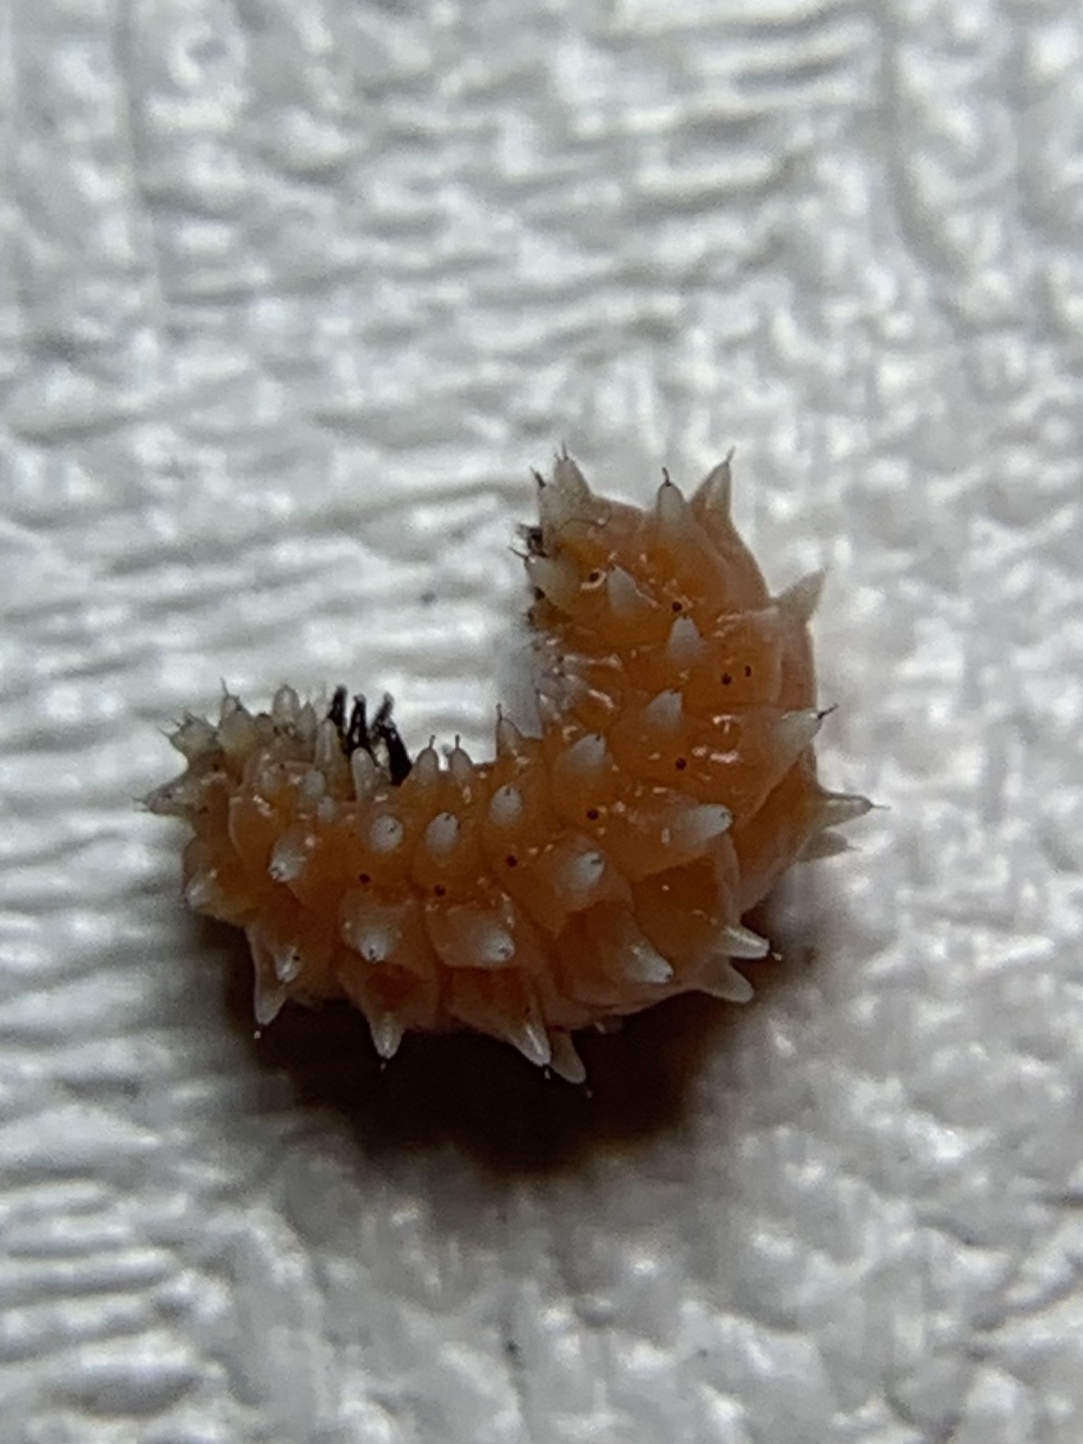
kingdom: Animalia
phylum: Arthropoda
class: Insecta
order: Coleoptera
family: Chrysomelidae
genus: Disonycha
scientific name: Disonycha
